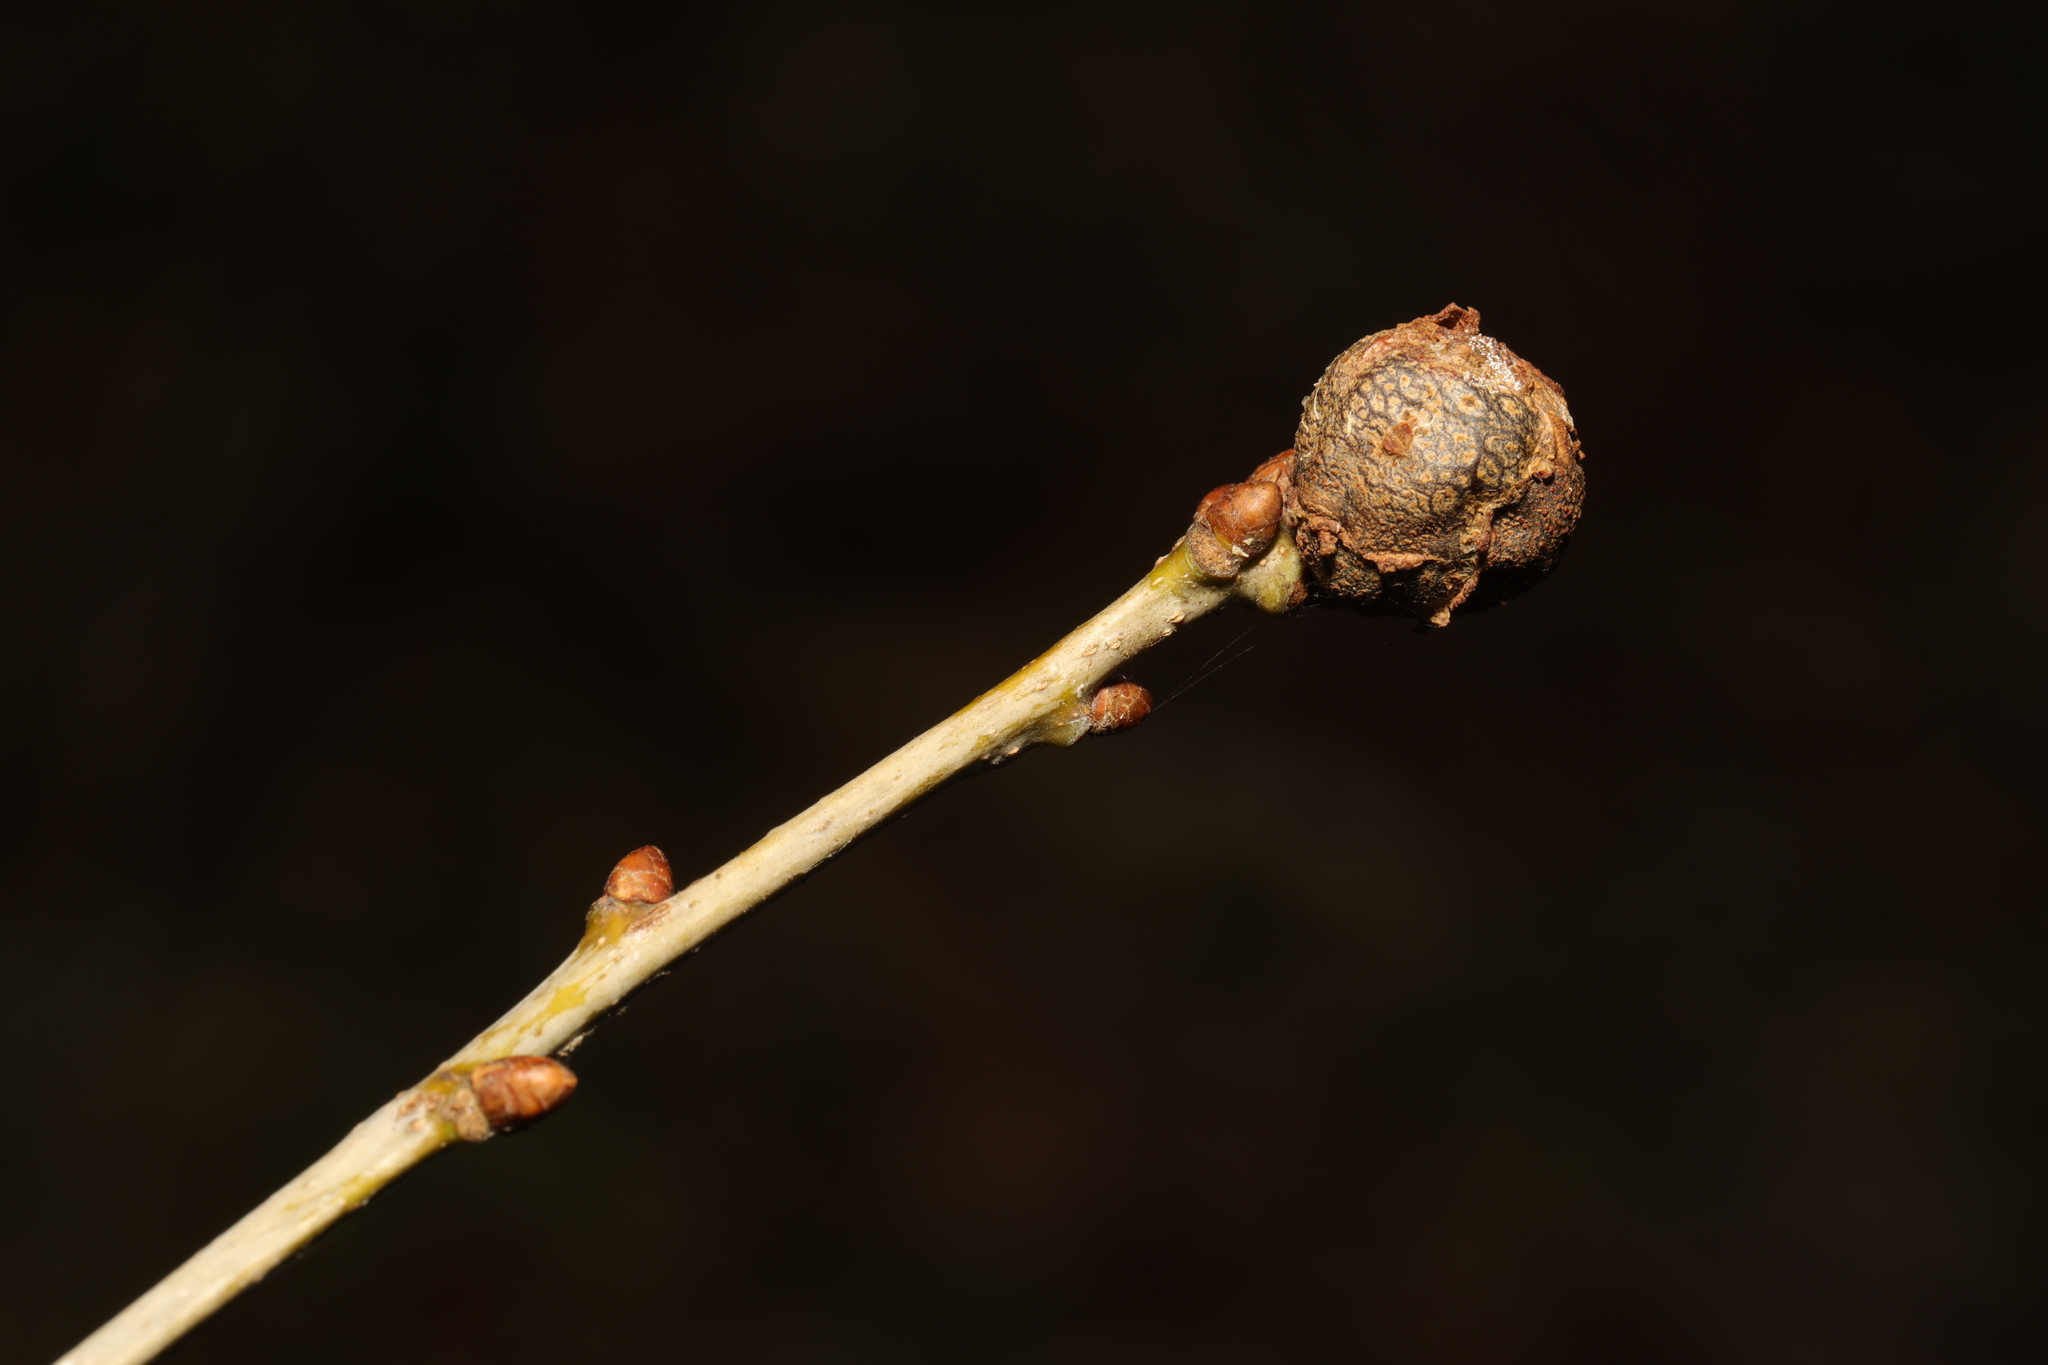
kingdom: Animalia
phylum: Arthropoda
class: Insecta
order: Hymenoptera
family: Cynipidae
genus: Andricus
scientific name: Andricus lignicolus
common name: Cola-nut gall
